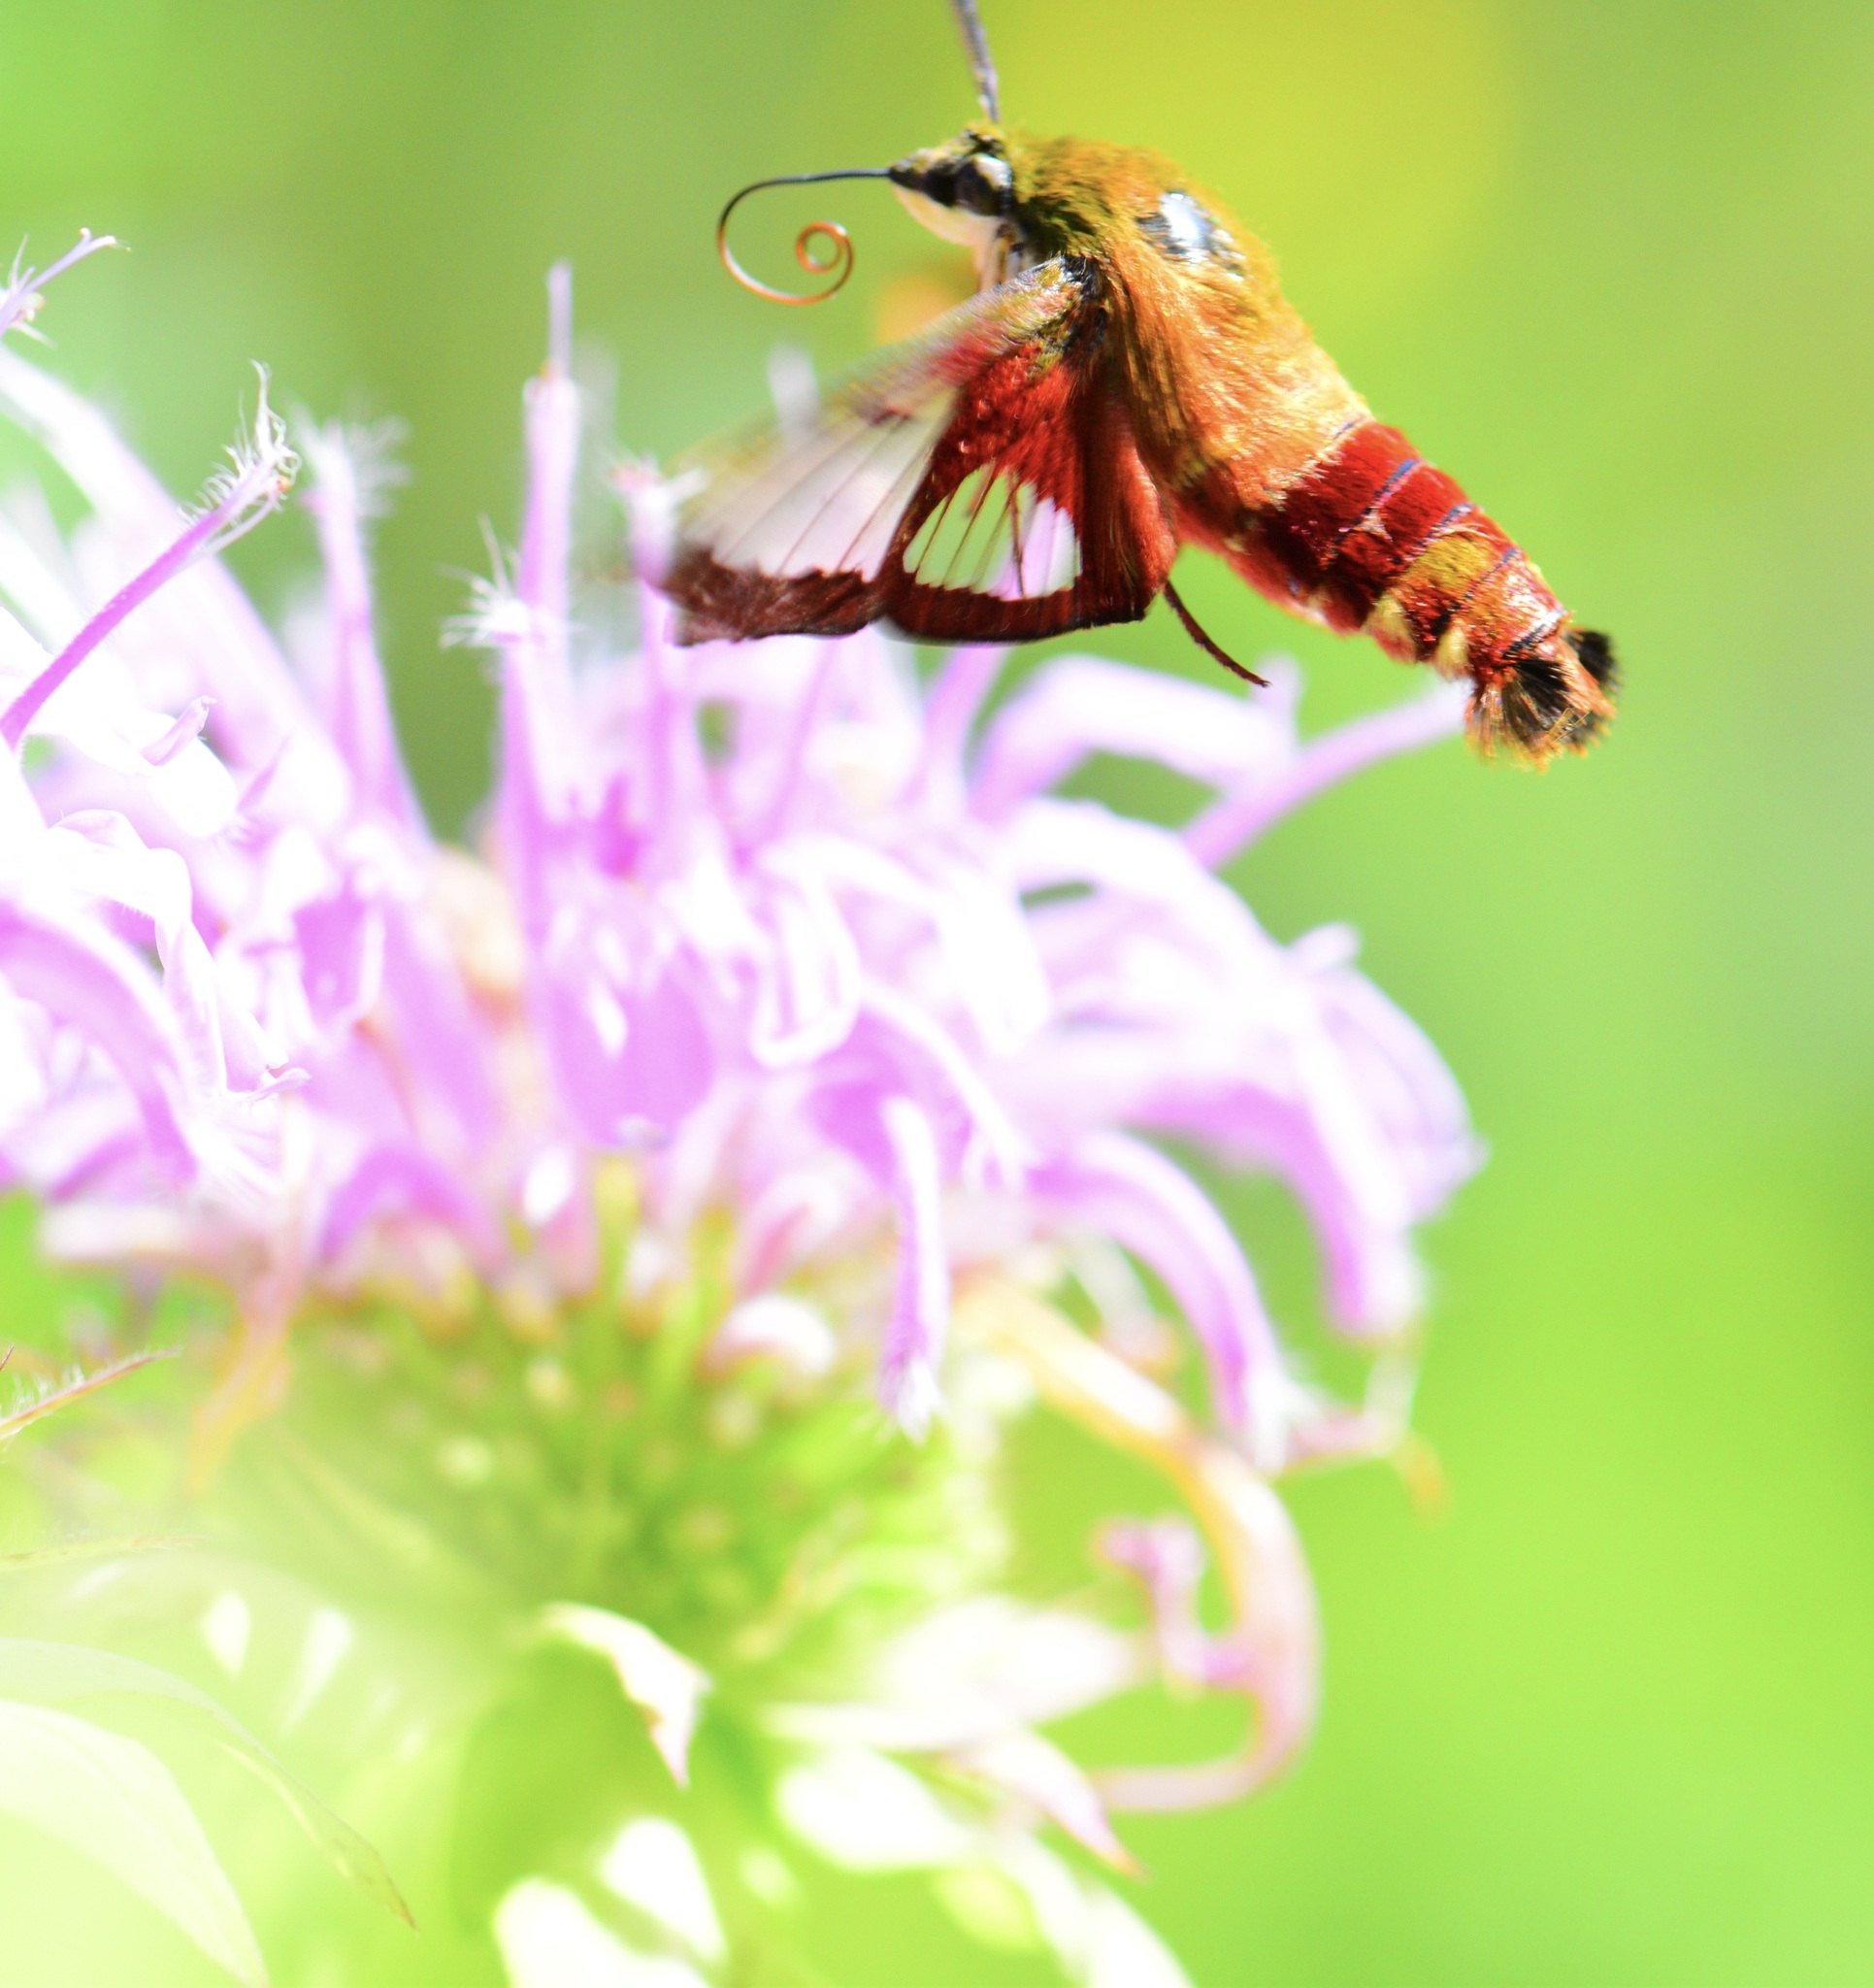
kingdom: Animalia
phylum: Arthropoda
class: Insecta
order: Lepidoptera
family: Sphingidae
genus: Hemaris
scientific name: Hemaris thysbe
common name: Common clear-wing
